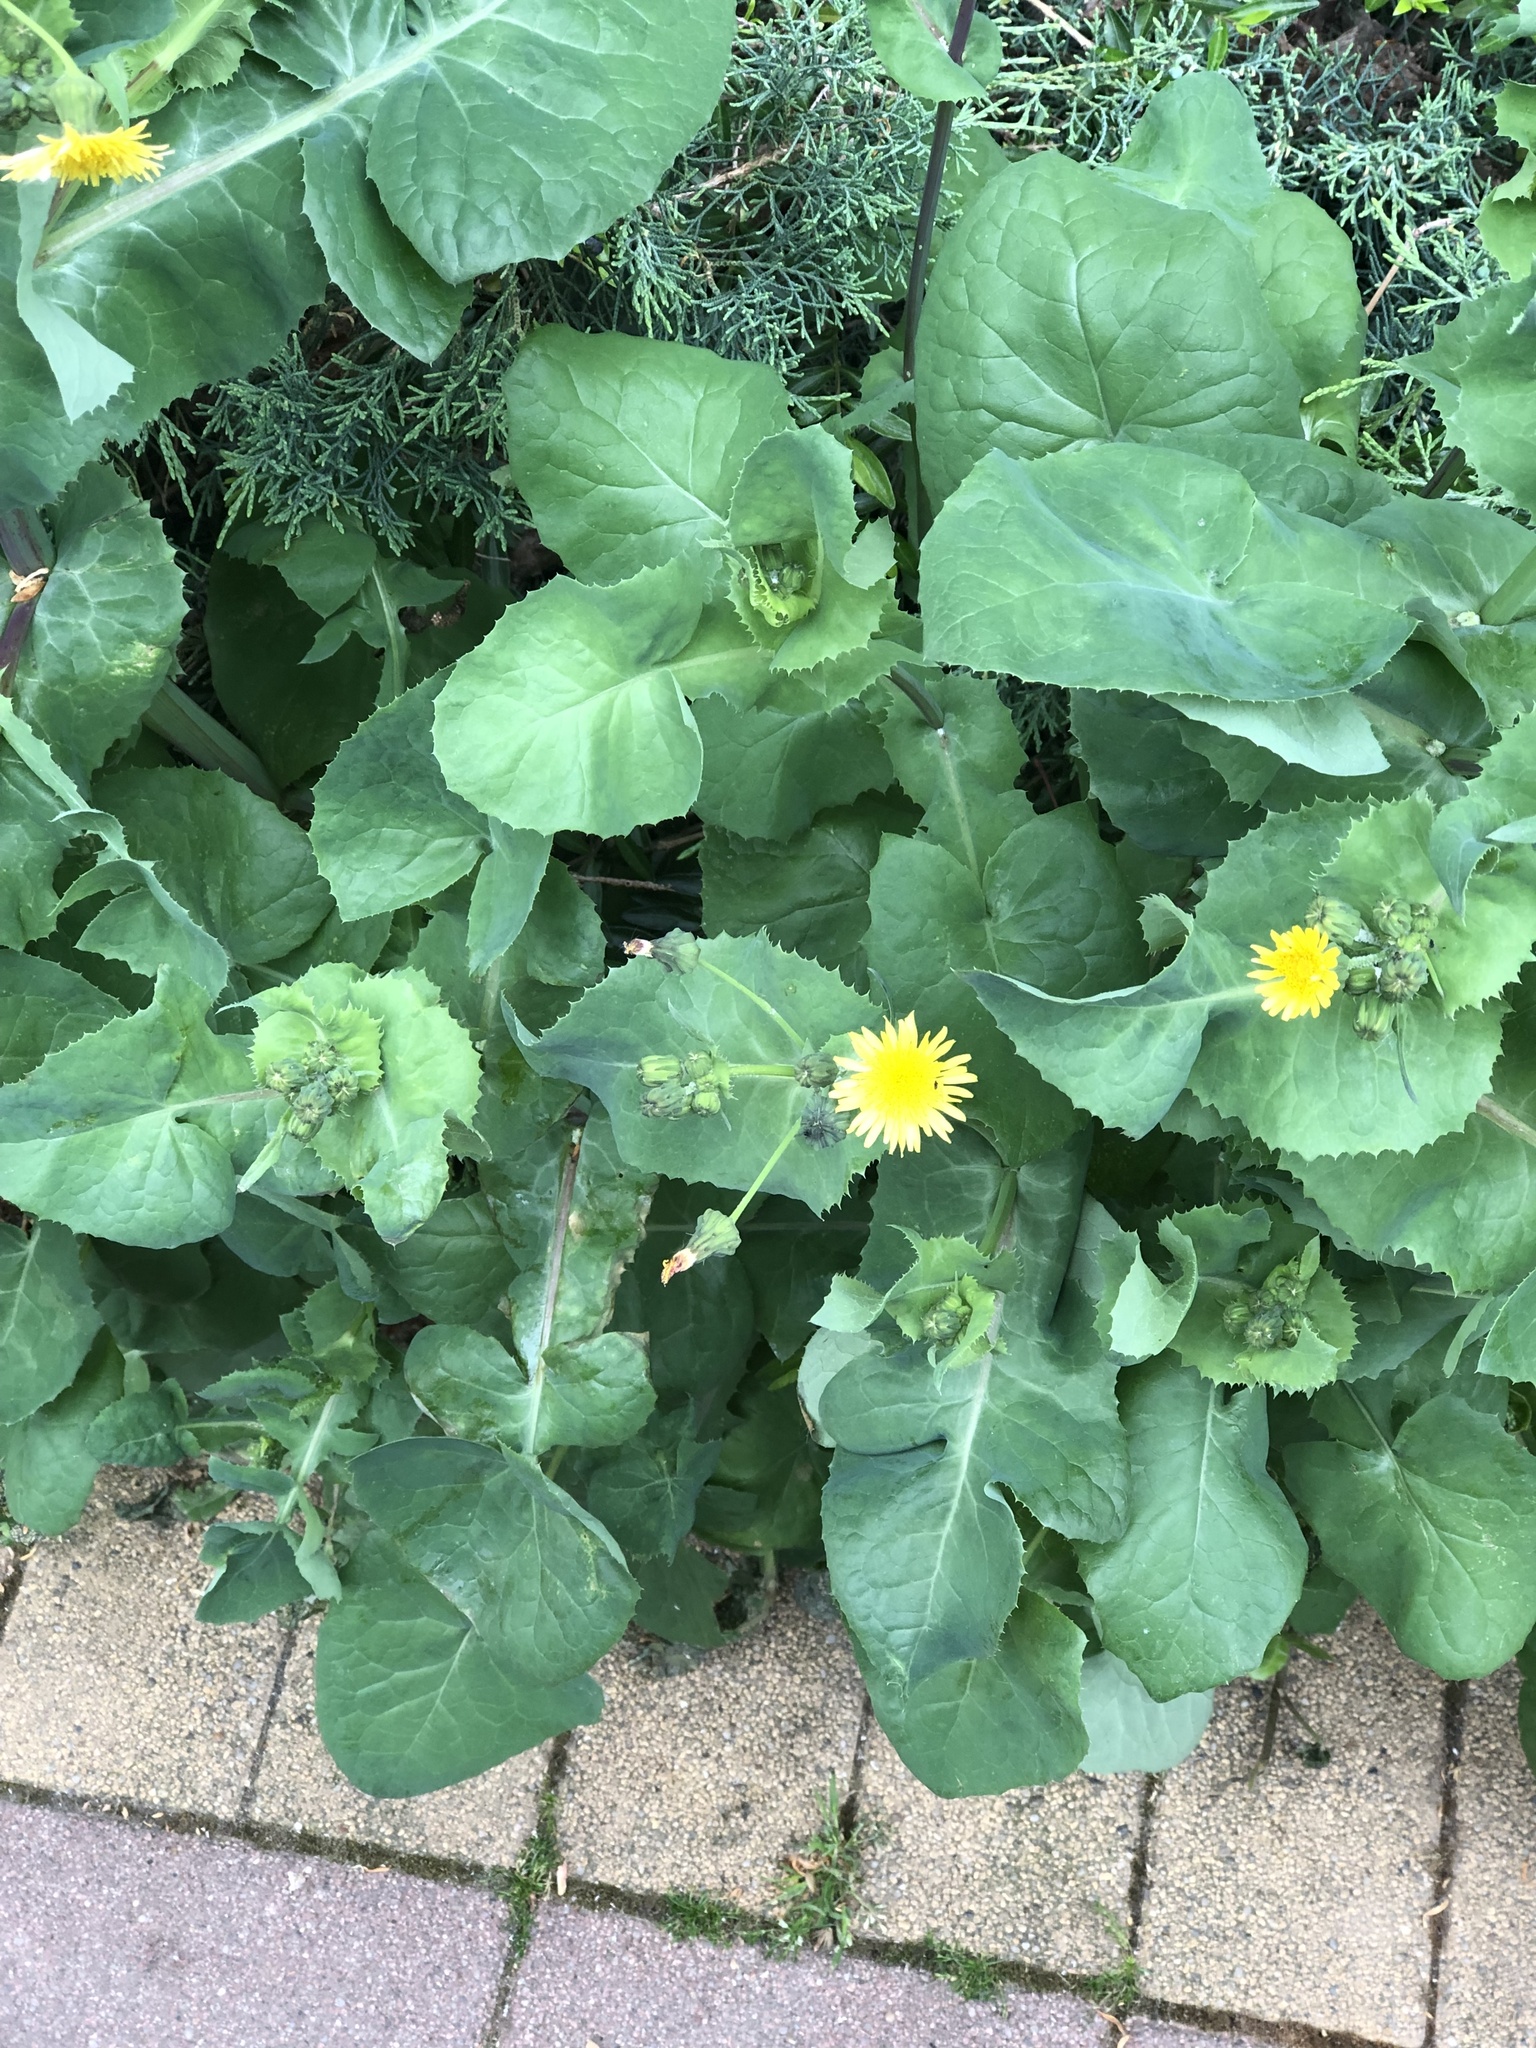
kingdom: Plantae
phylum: Tracheophyta
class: Magnoliopsida
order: Asterales
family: Asteraceae
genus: Sonchus
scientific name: Sonchus oleraceus
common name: Common sowthistle
